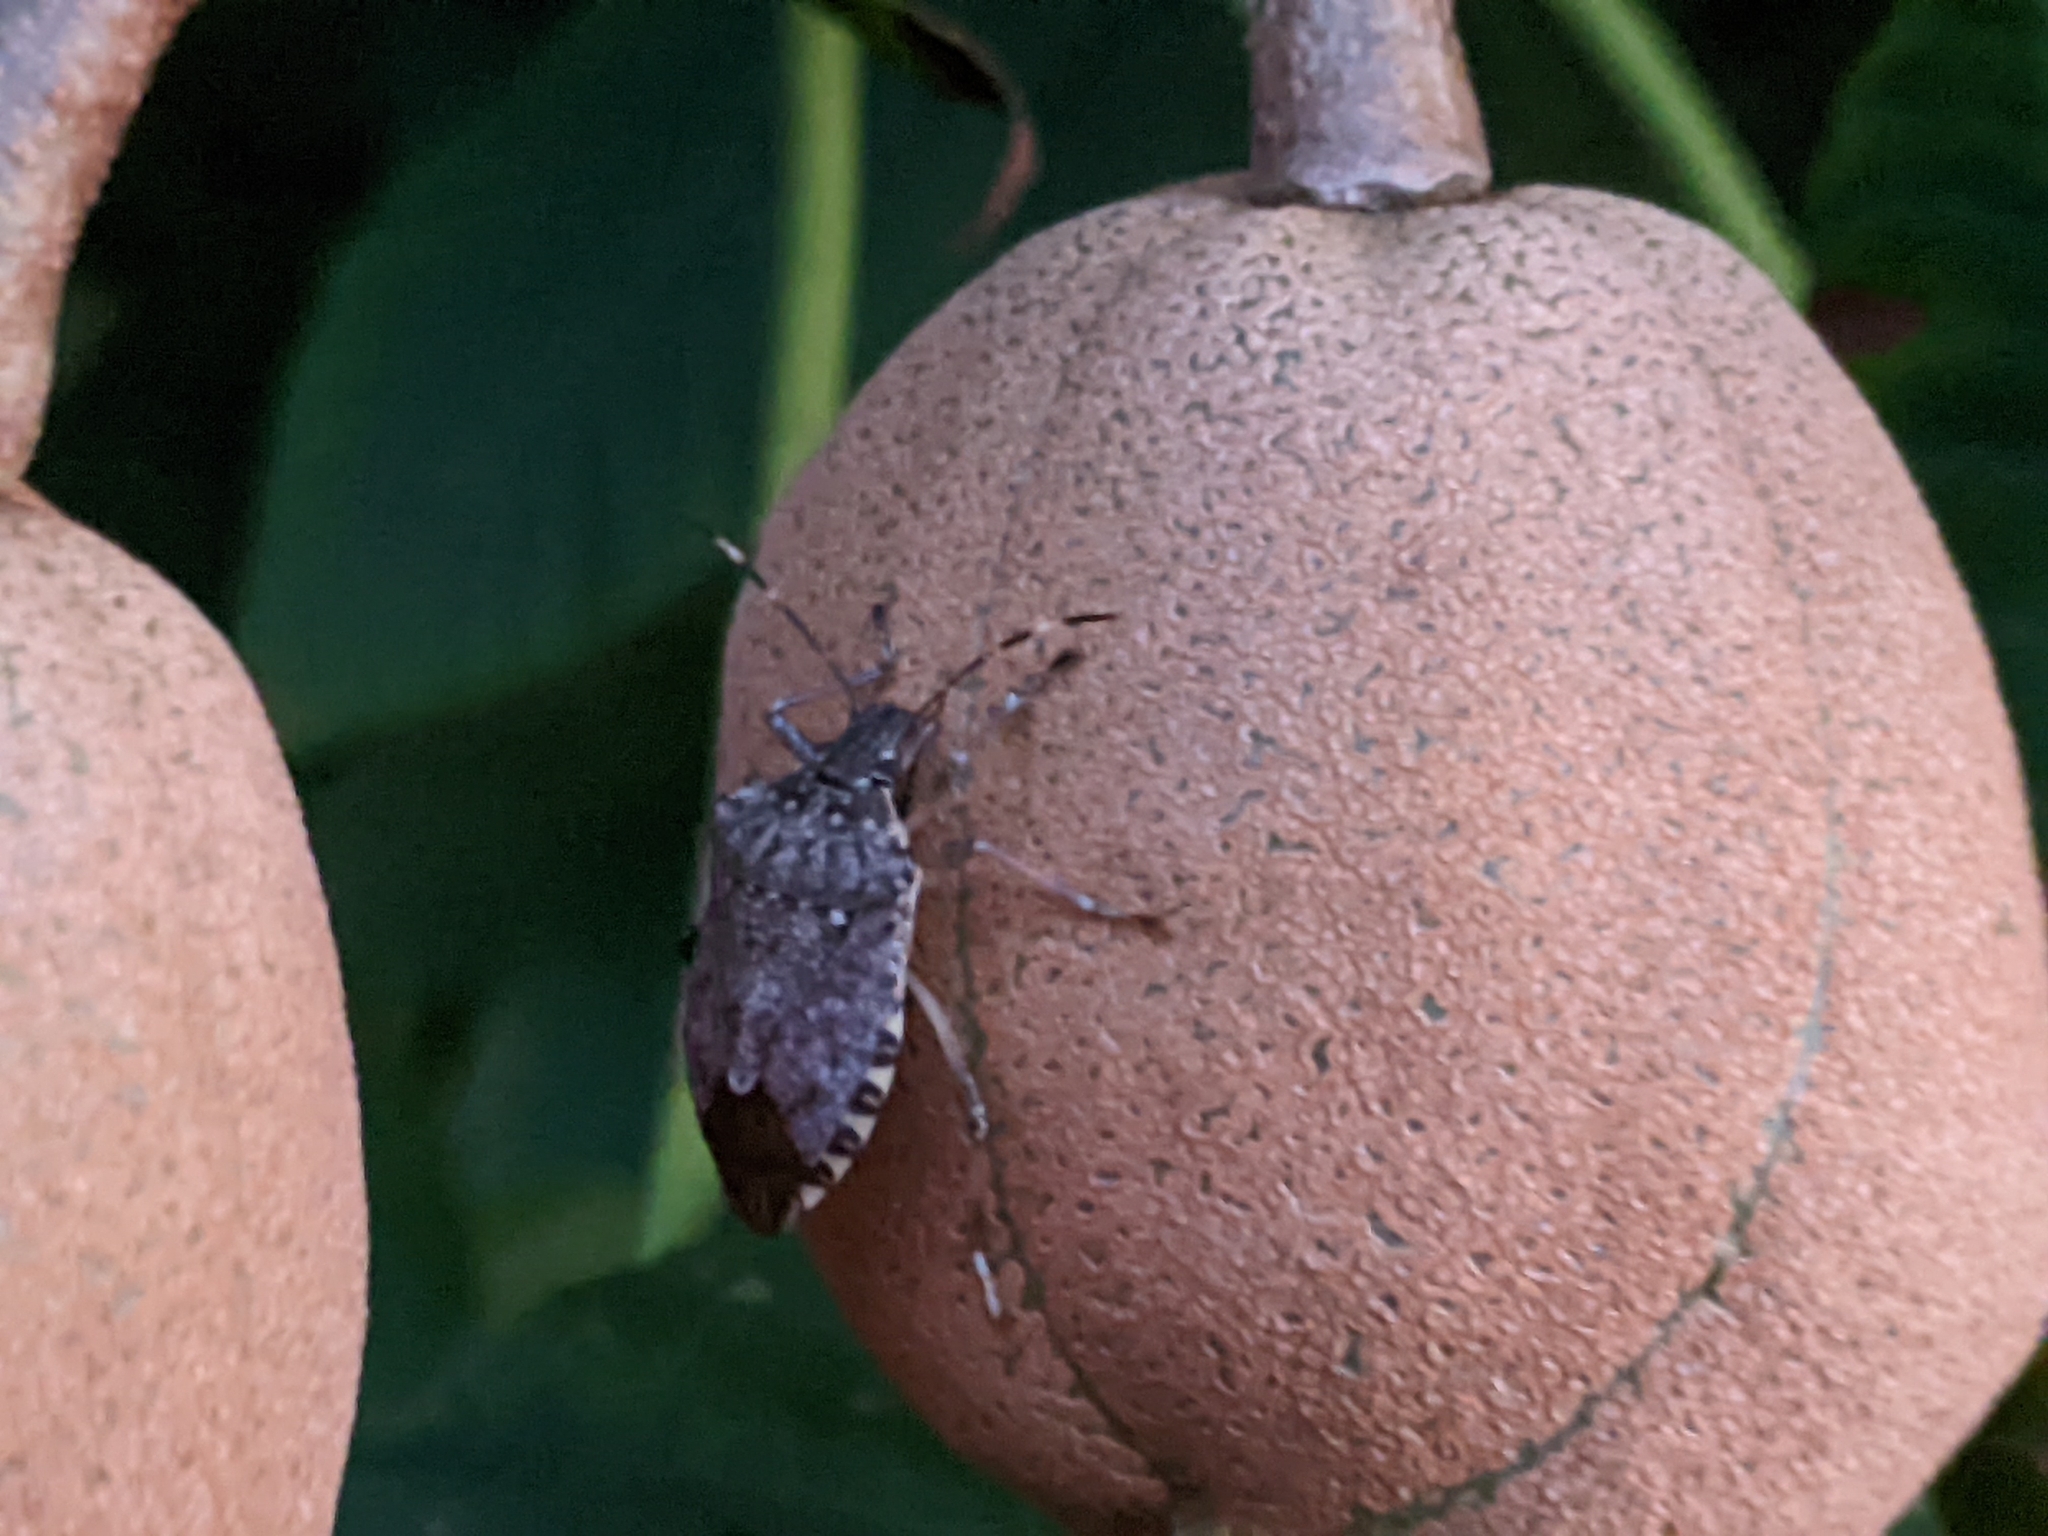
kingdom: Animalia
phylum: Arthropoda
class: Insecta
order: Hemiptera
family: Pentatomidae
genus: Halyomorpha
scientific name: Halyomorpha halys
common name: Brown marmorated stink bug
